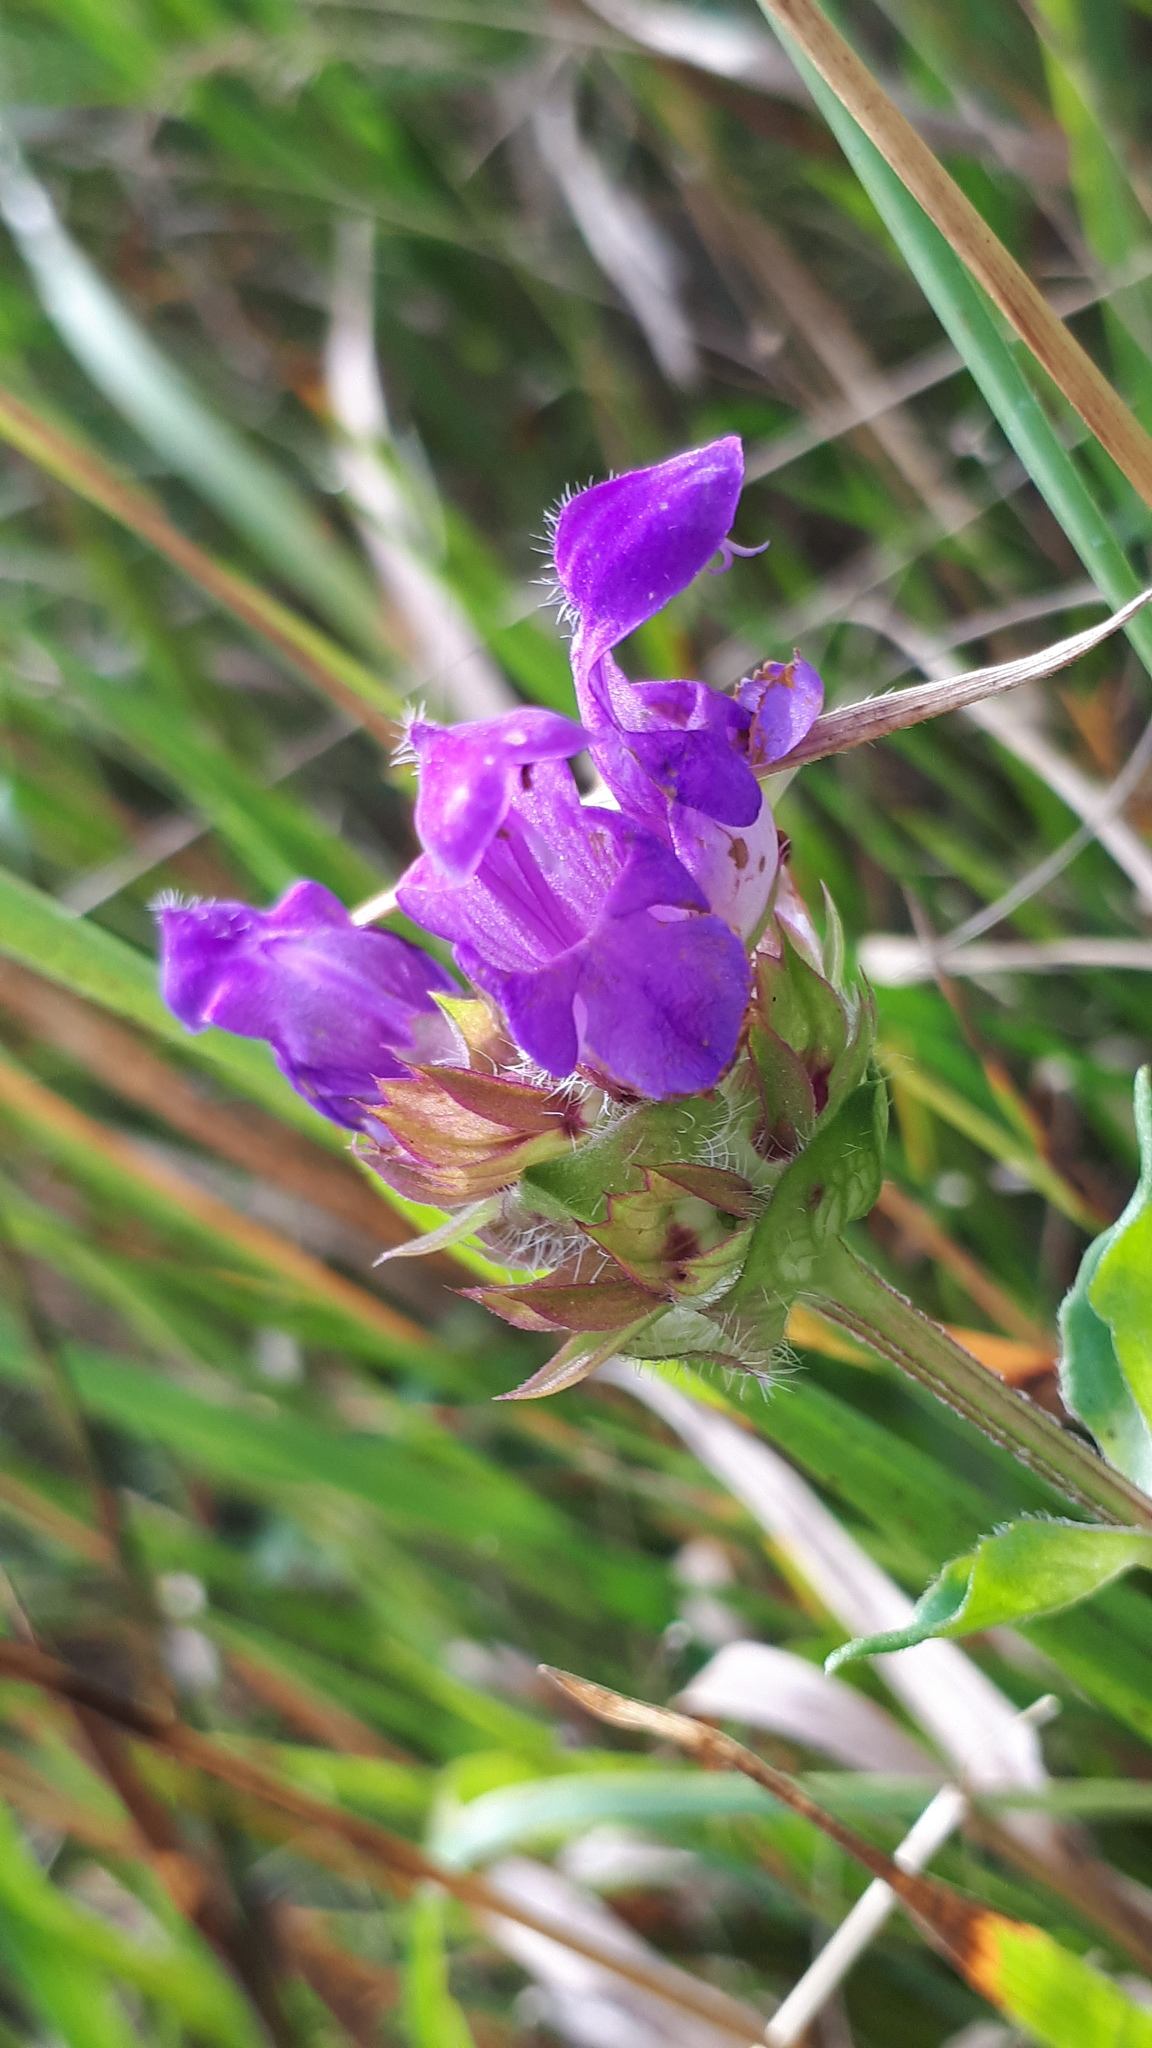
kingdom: Plantae
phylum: Tracheophyta
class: Magnoliopsida
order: Lamiales
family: Lamiaceae
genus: Prunella
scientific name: Prunella grandiflora
